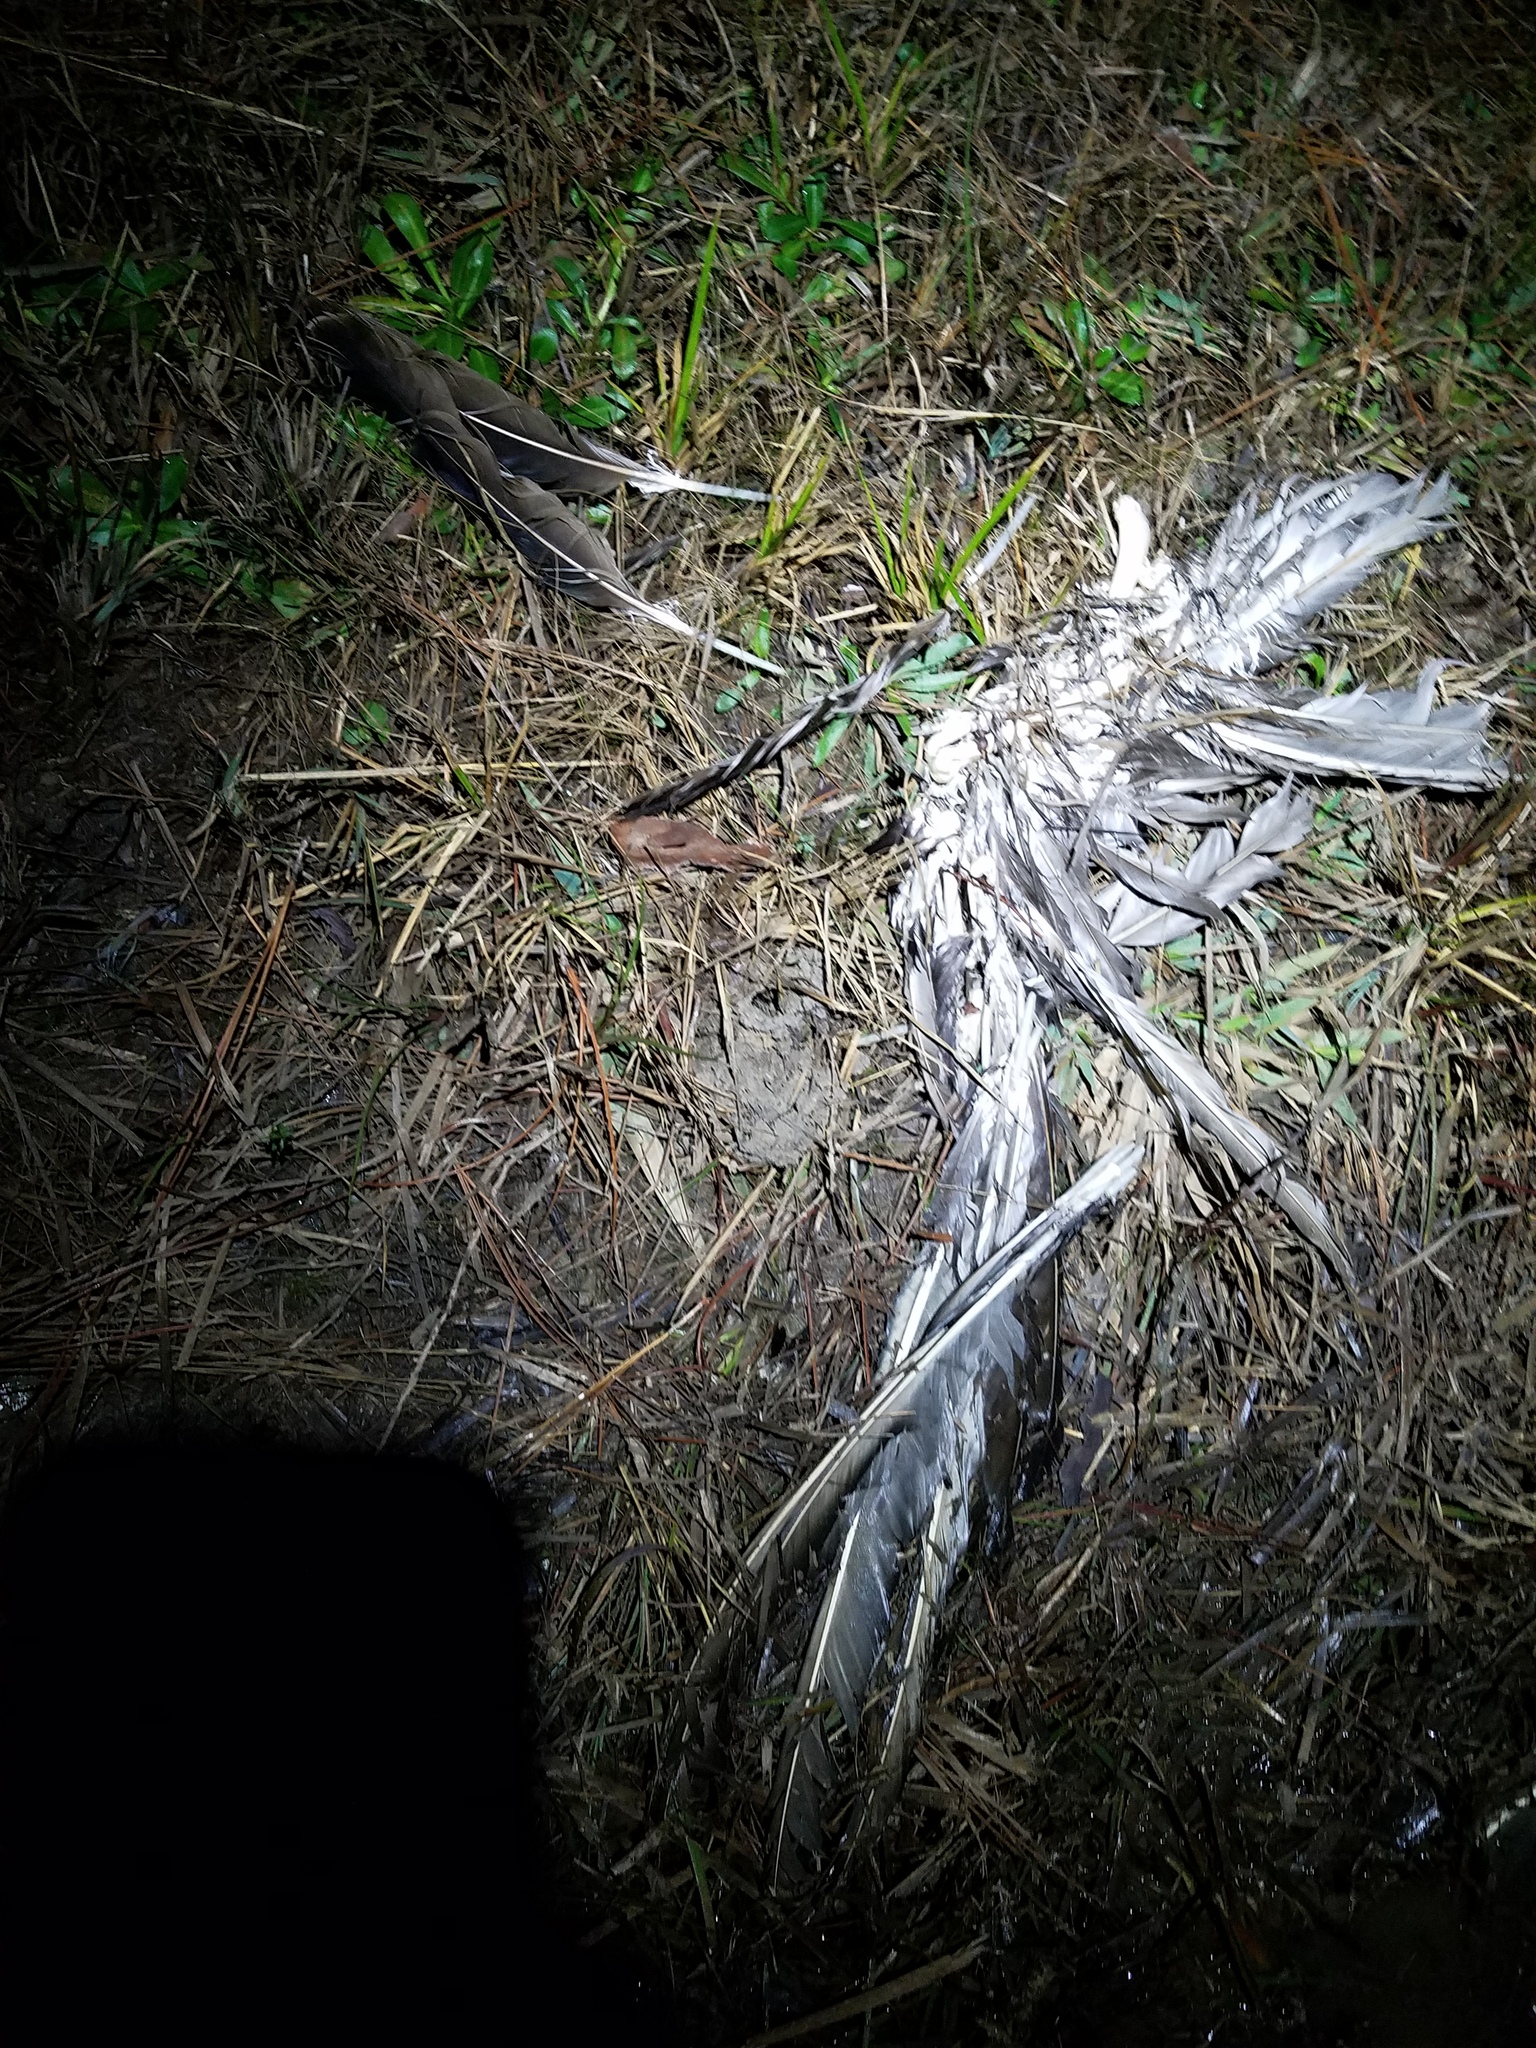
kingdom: Animalia
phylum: Chordata
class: Aves
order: Accipitriformes
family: Cathartidae
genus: Cathartes
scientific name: Cathartes aura
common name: Turkey vulture
